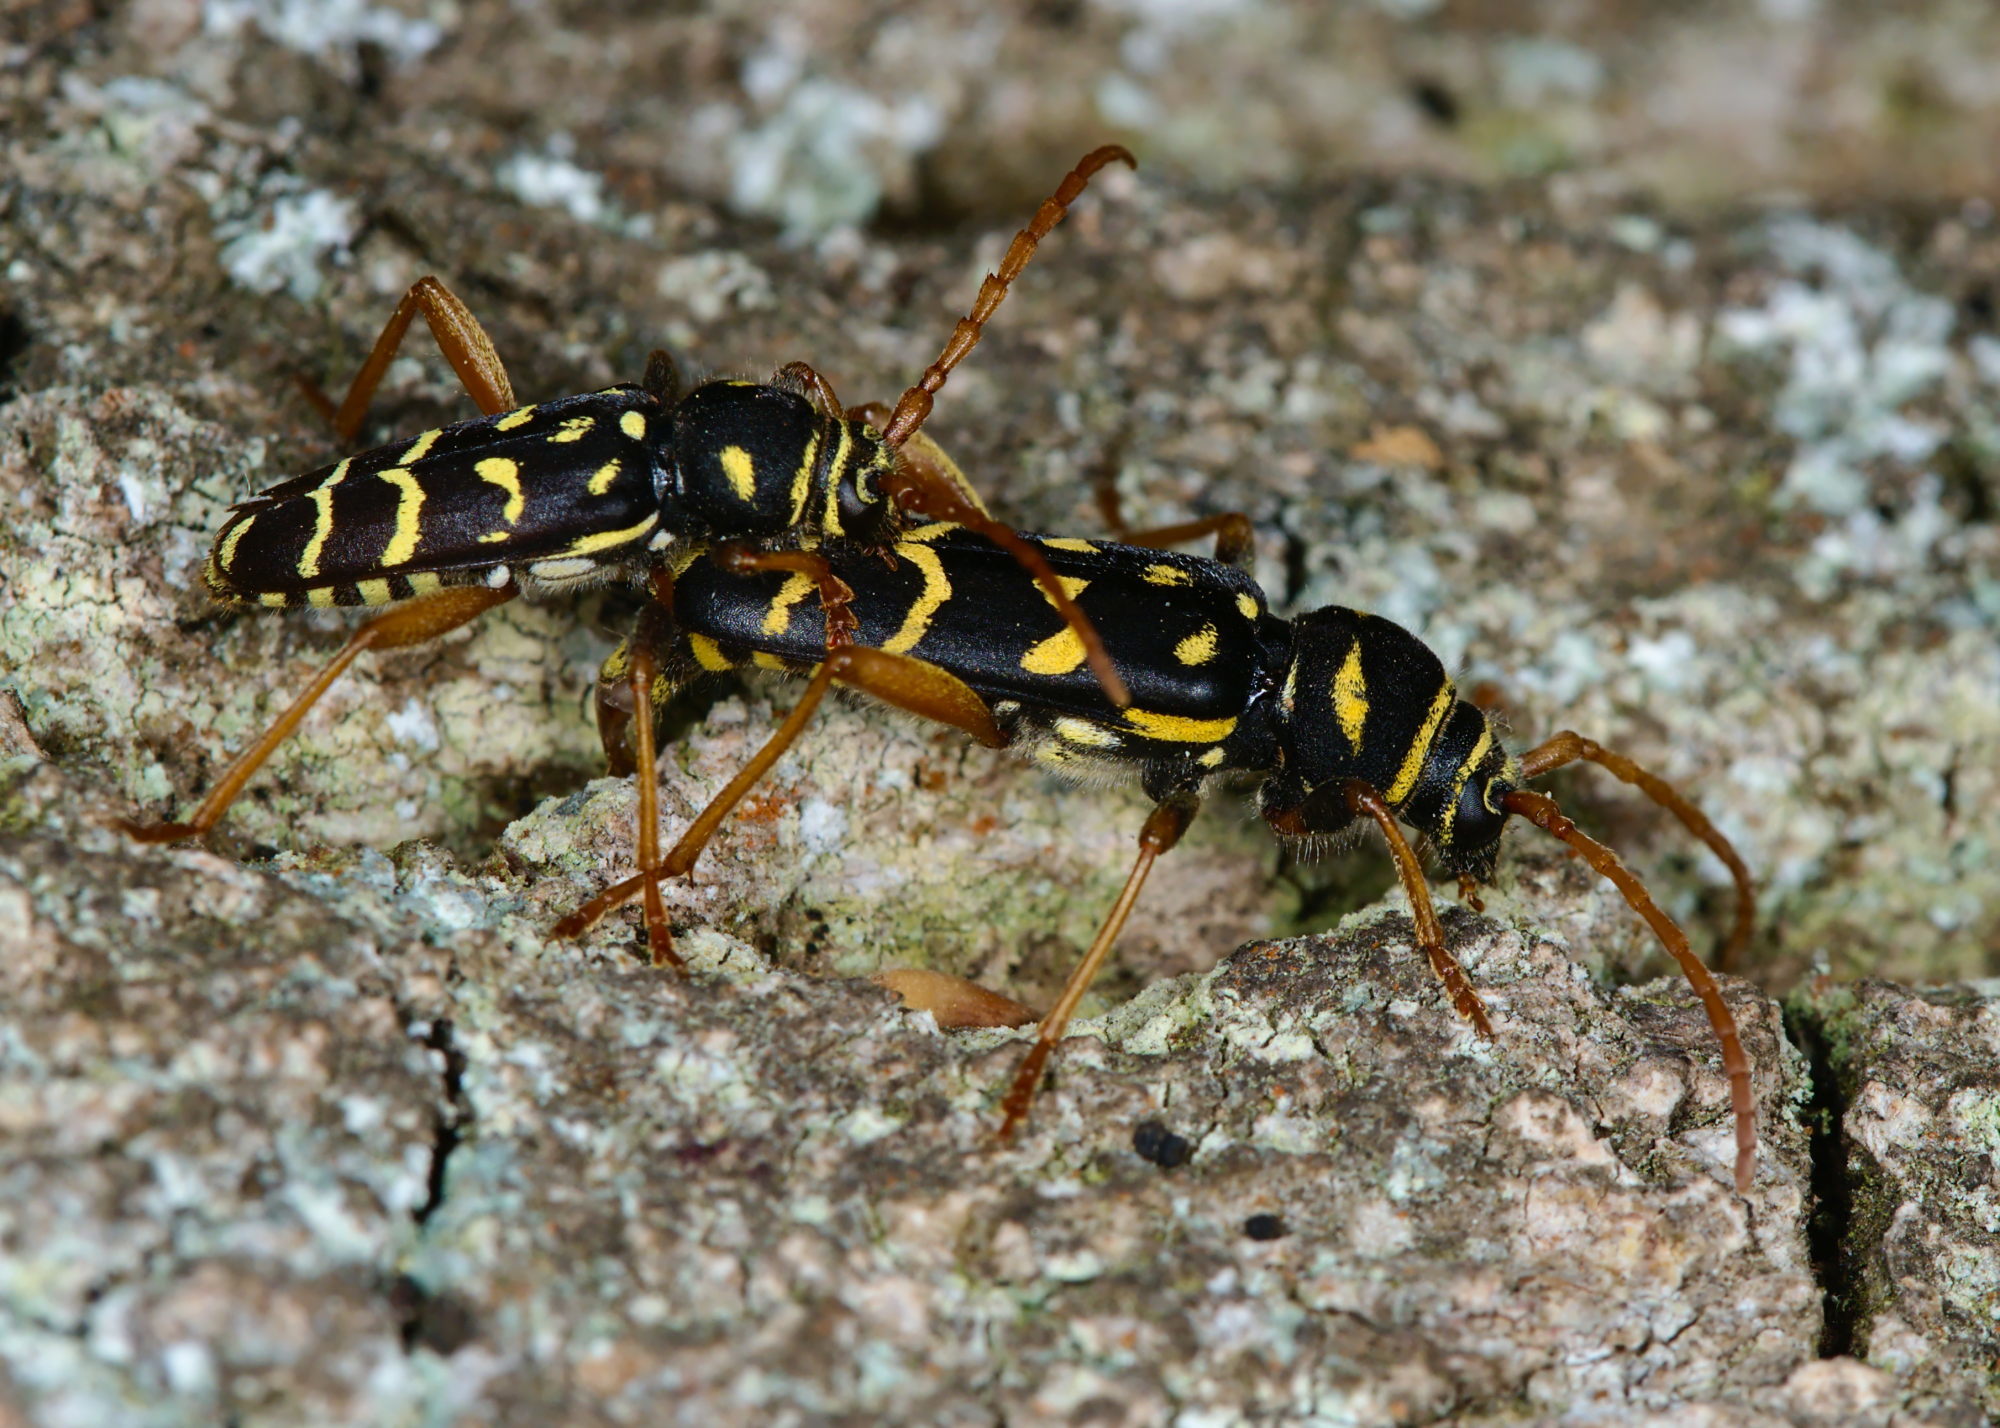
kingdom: Animalia
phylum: Arthropoda
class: Insecta
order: Coleoptera
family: Cerambycidae
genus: Plagionotus
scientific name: Plagionotus arcuatus
